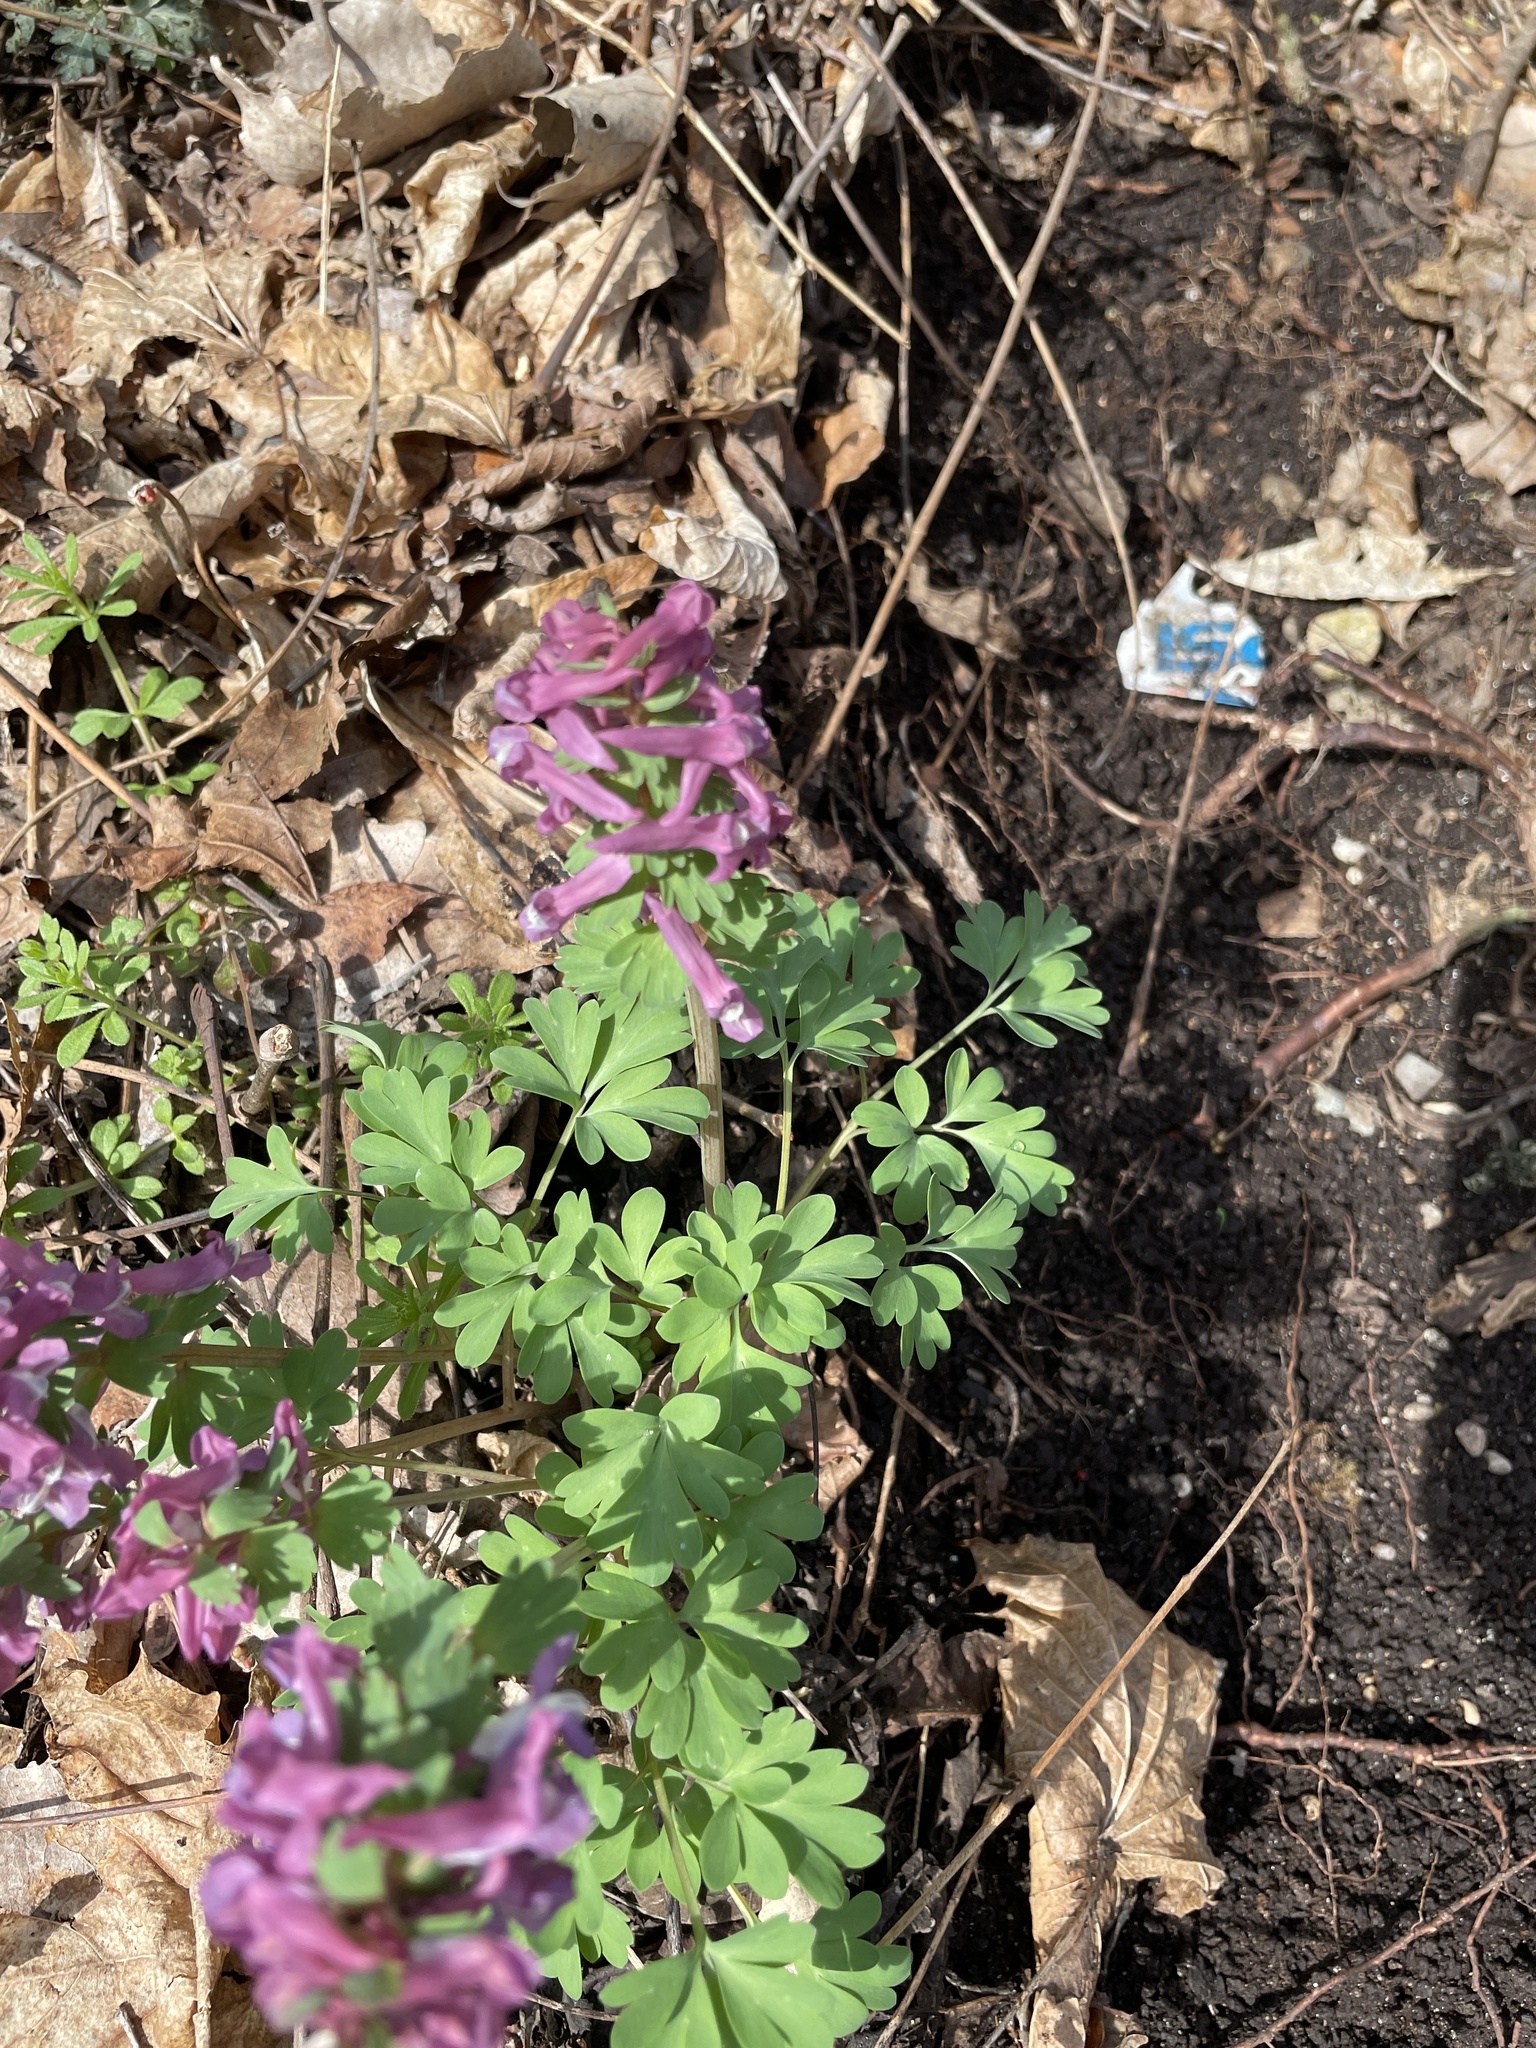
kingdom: Plantae
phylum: Tracheophyta
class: Magnoliopsida
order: Ranunculales
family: Papaveraceae
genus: Corydalis
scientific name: Corydalis solida
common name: Bird-in-a-bush
